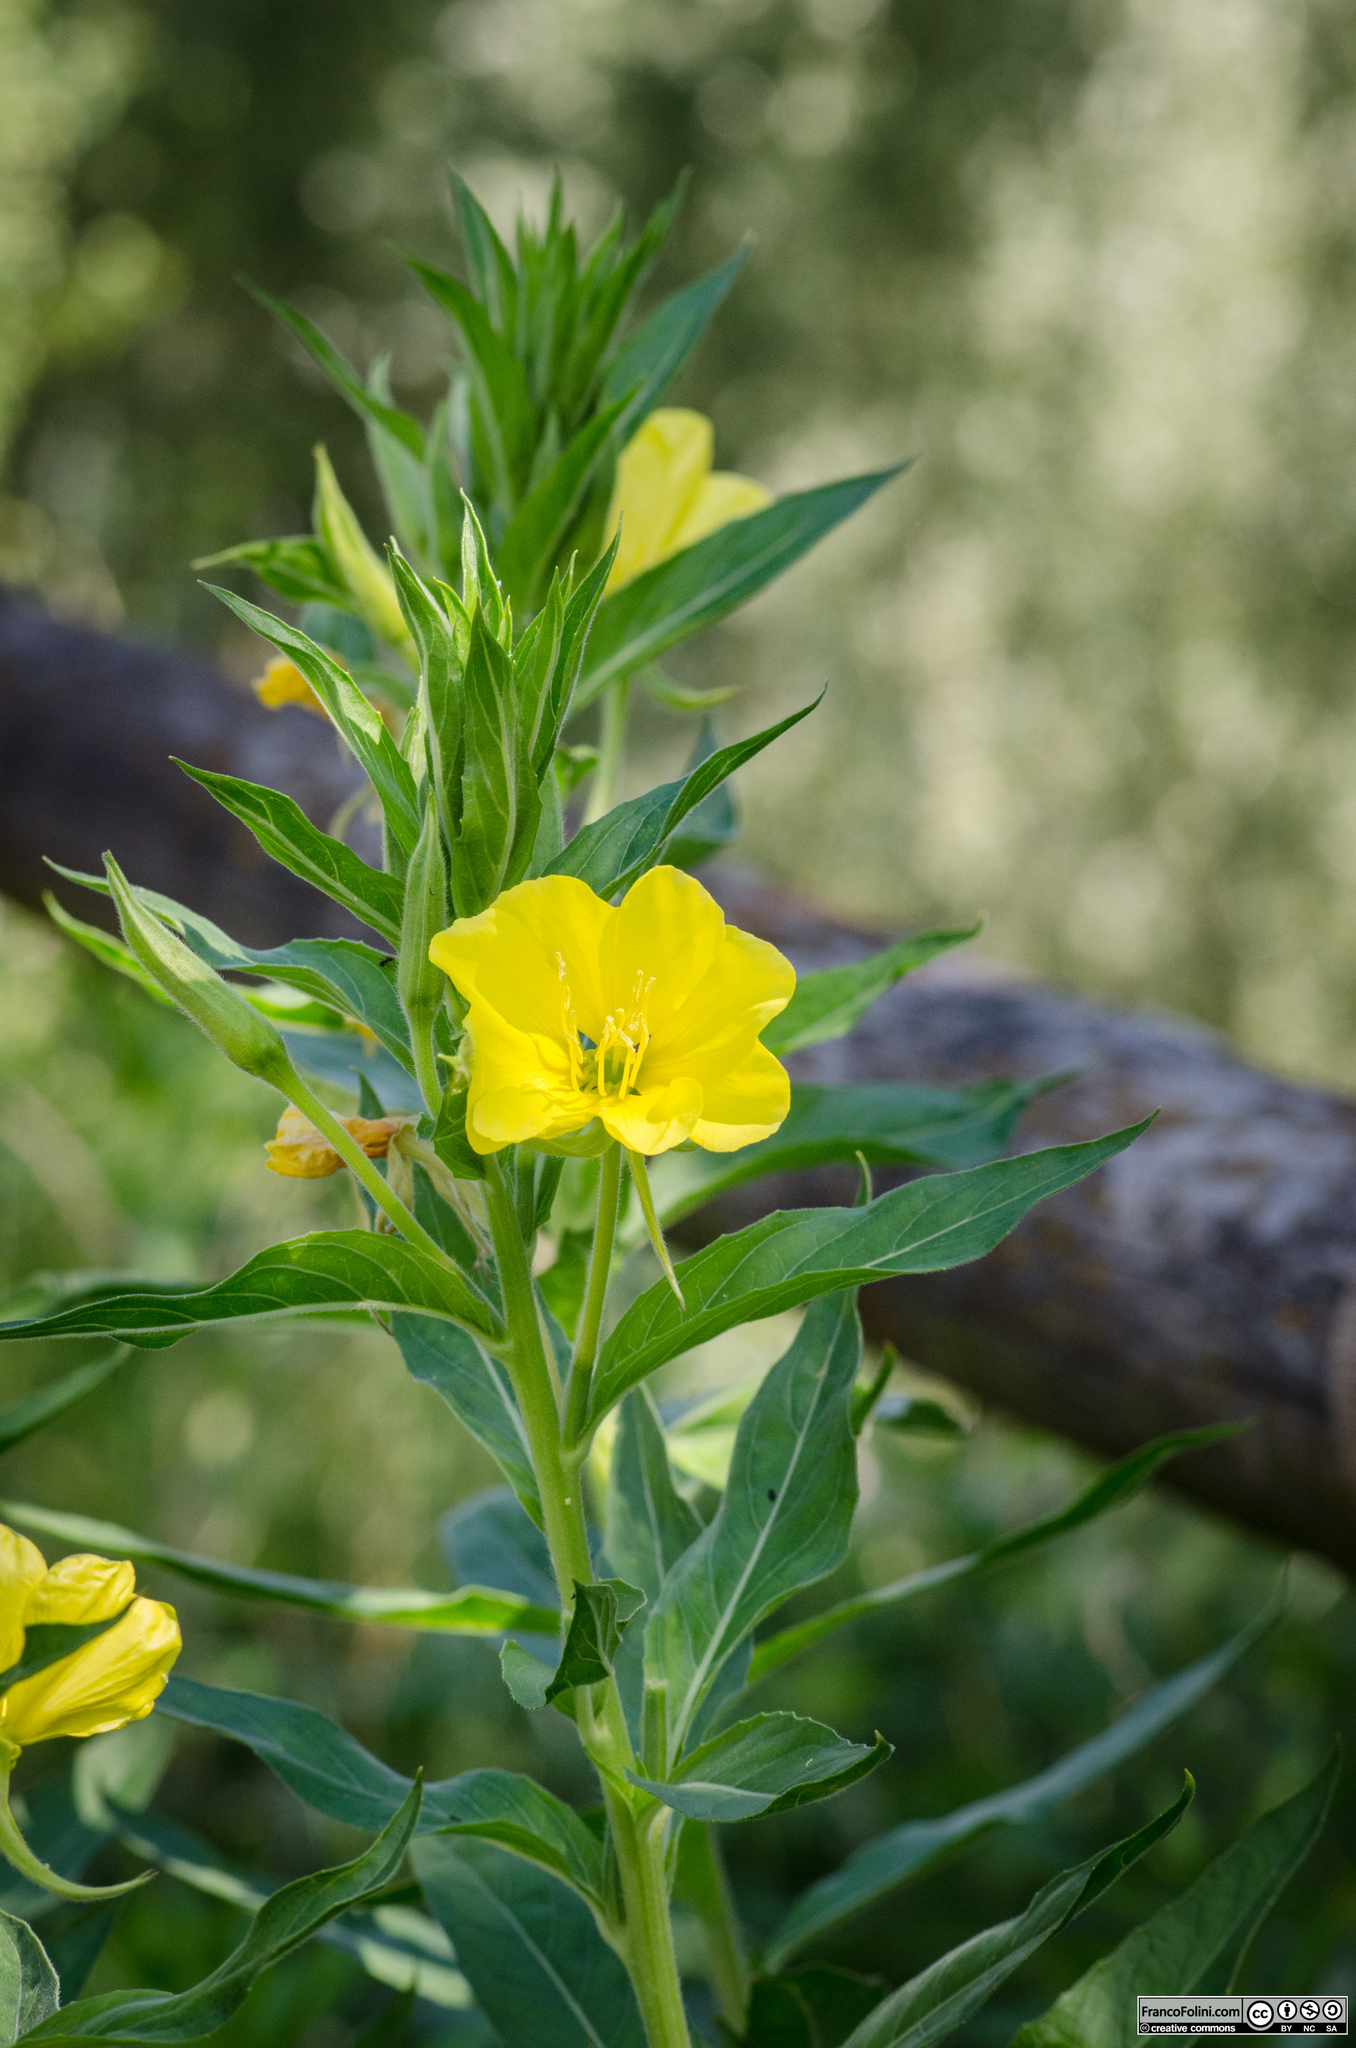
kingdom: Plantae
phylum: Tracheophyta
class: Magnoliopsida
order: Myrtales
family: Onagraceae
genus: Oenothera
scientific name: Oenothera biennis
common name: Common evening-primrose
